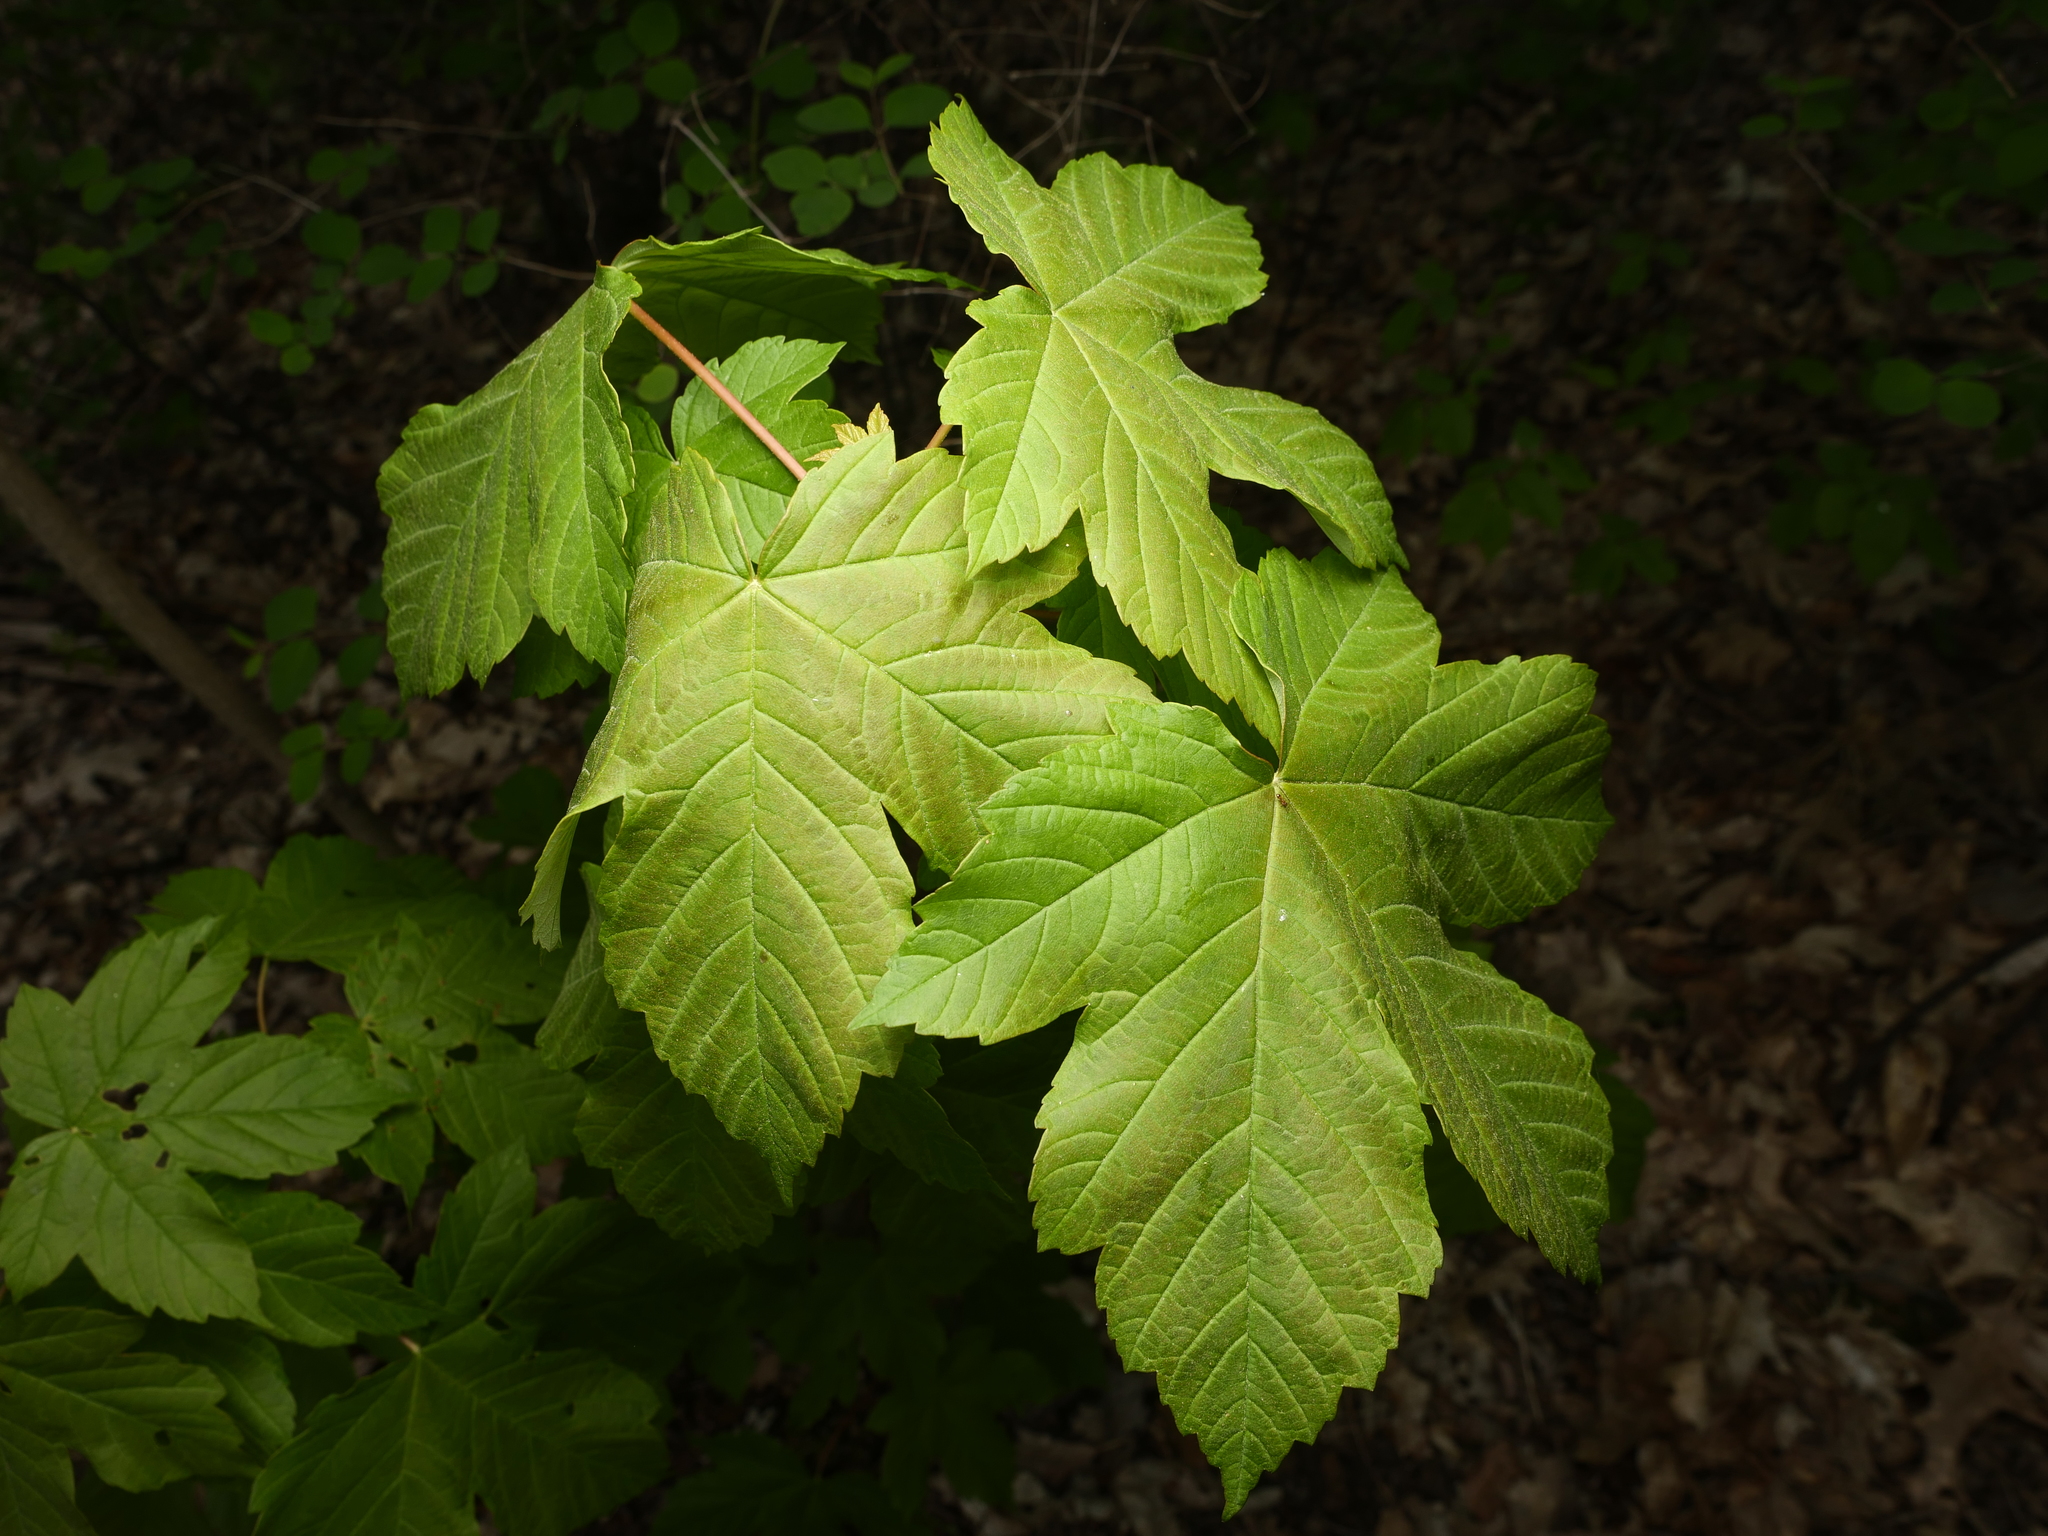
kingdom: Plantae
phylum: Tracheophyta
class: Magnoliopsida
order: Sapindales
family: Sapindaceae
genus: Acer
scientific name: Acer pseudoplatanus
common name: Sycamore
